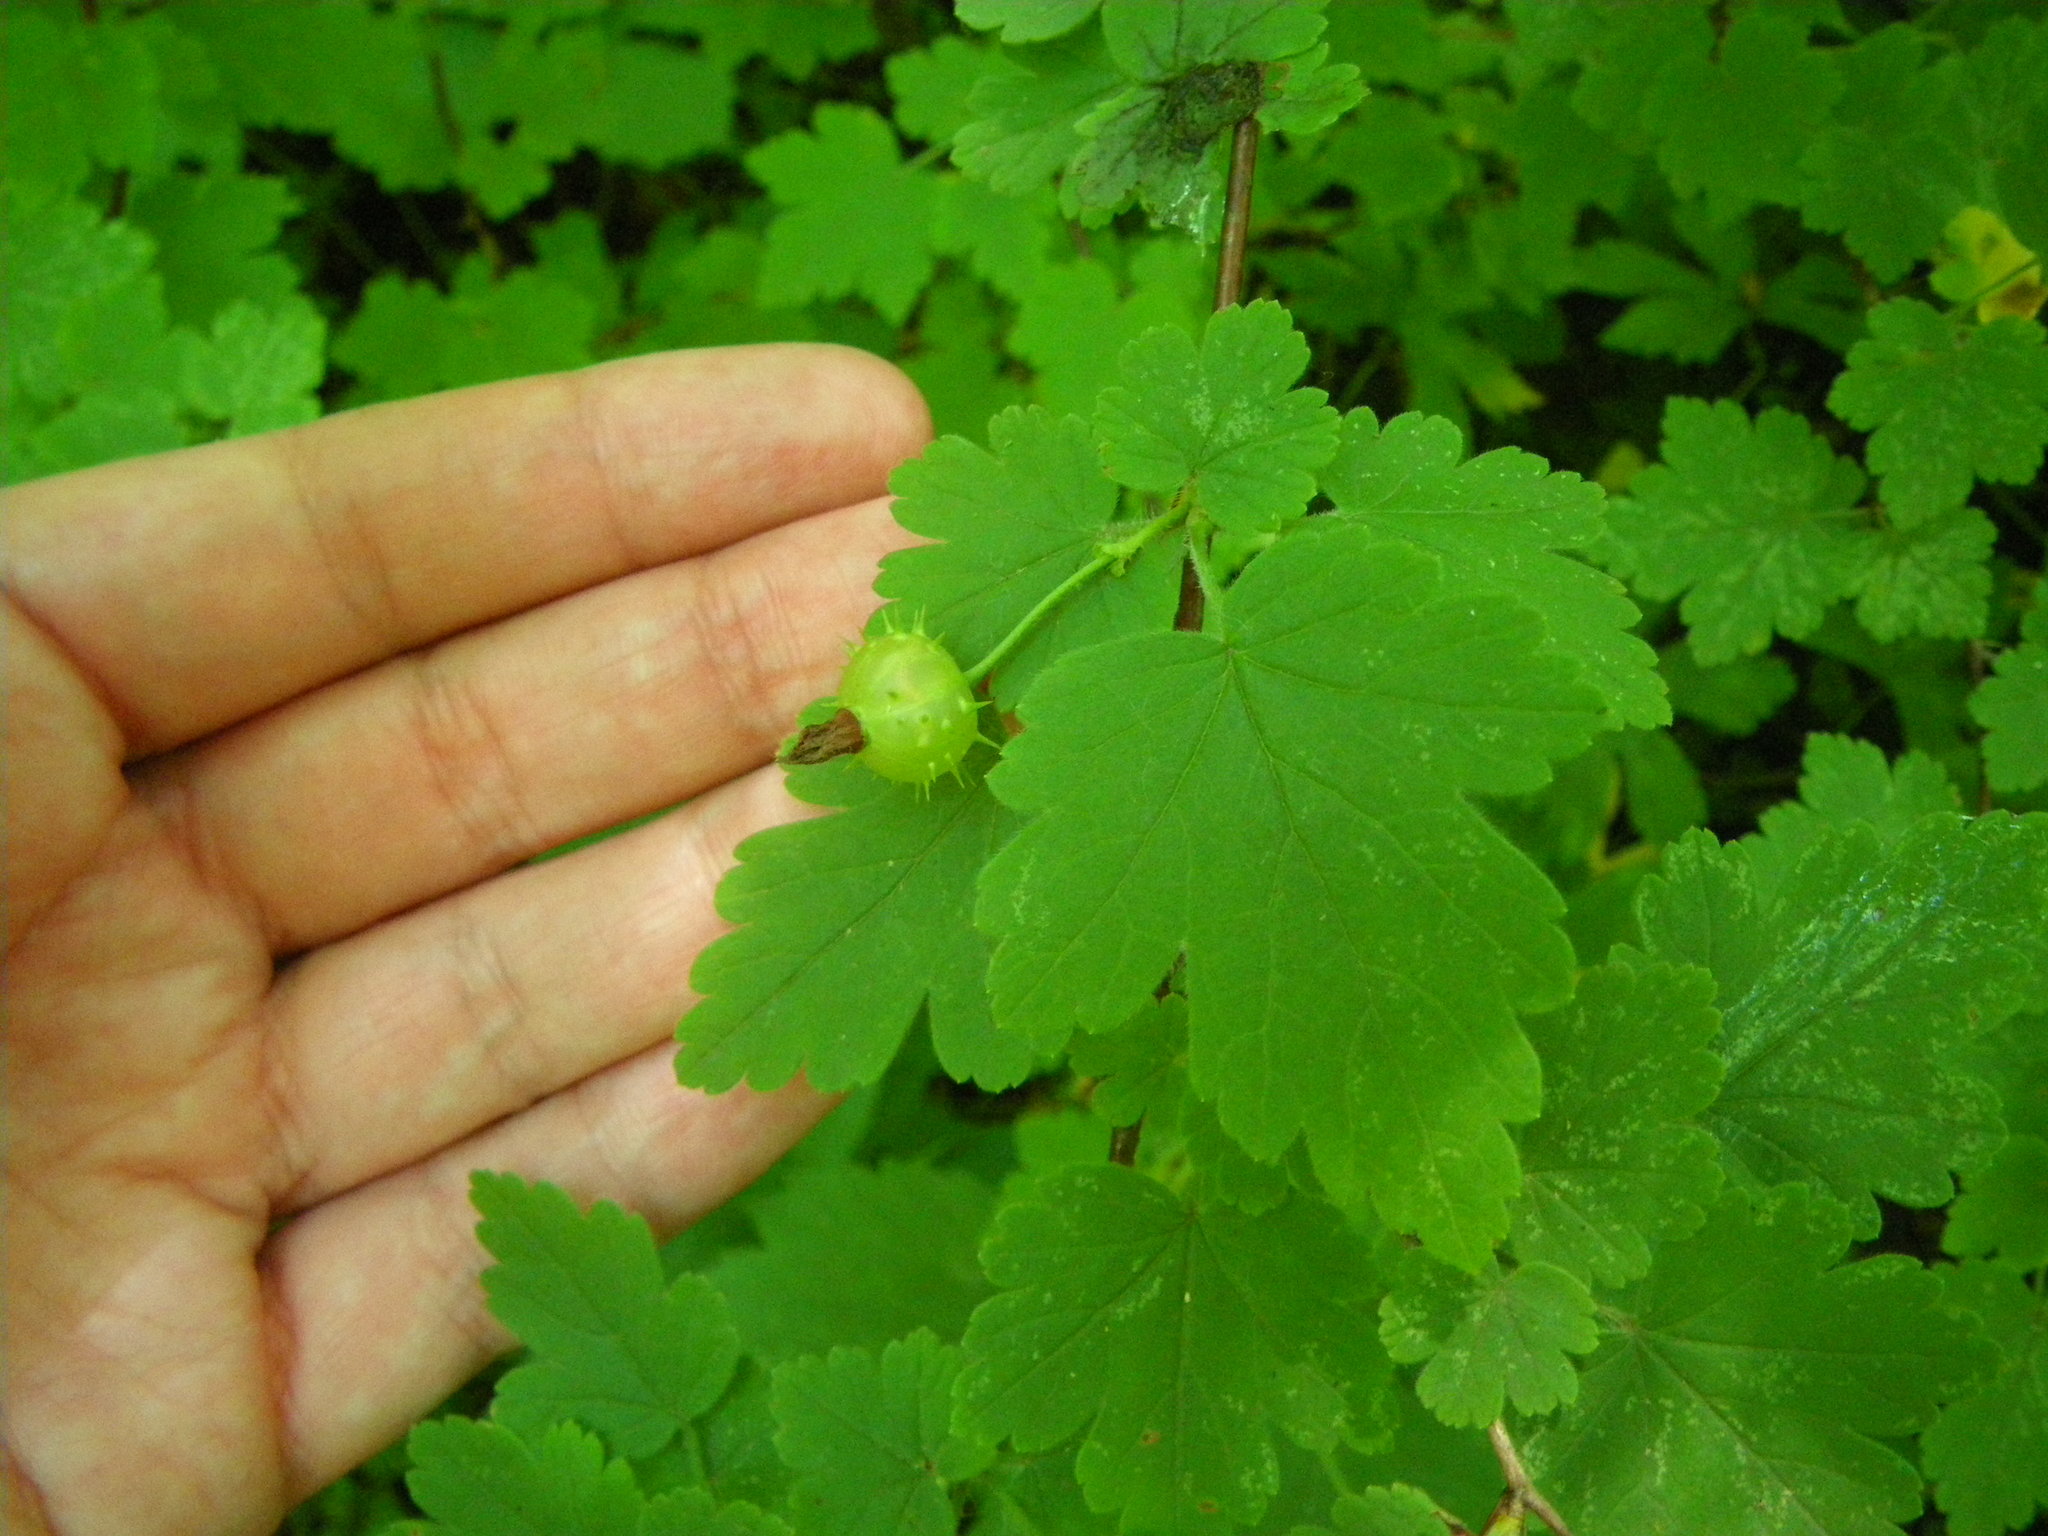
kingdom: Plantae
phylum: Tracheophyta
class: Magnoliopsida
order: Saxifragales
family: Grossulariaceae
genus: Ribes
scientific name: Ribes cynosbati
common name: American gooseberry
